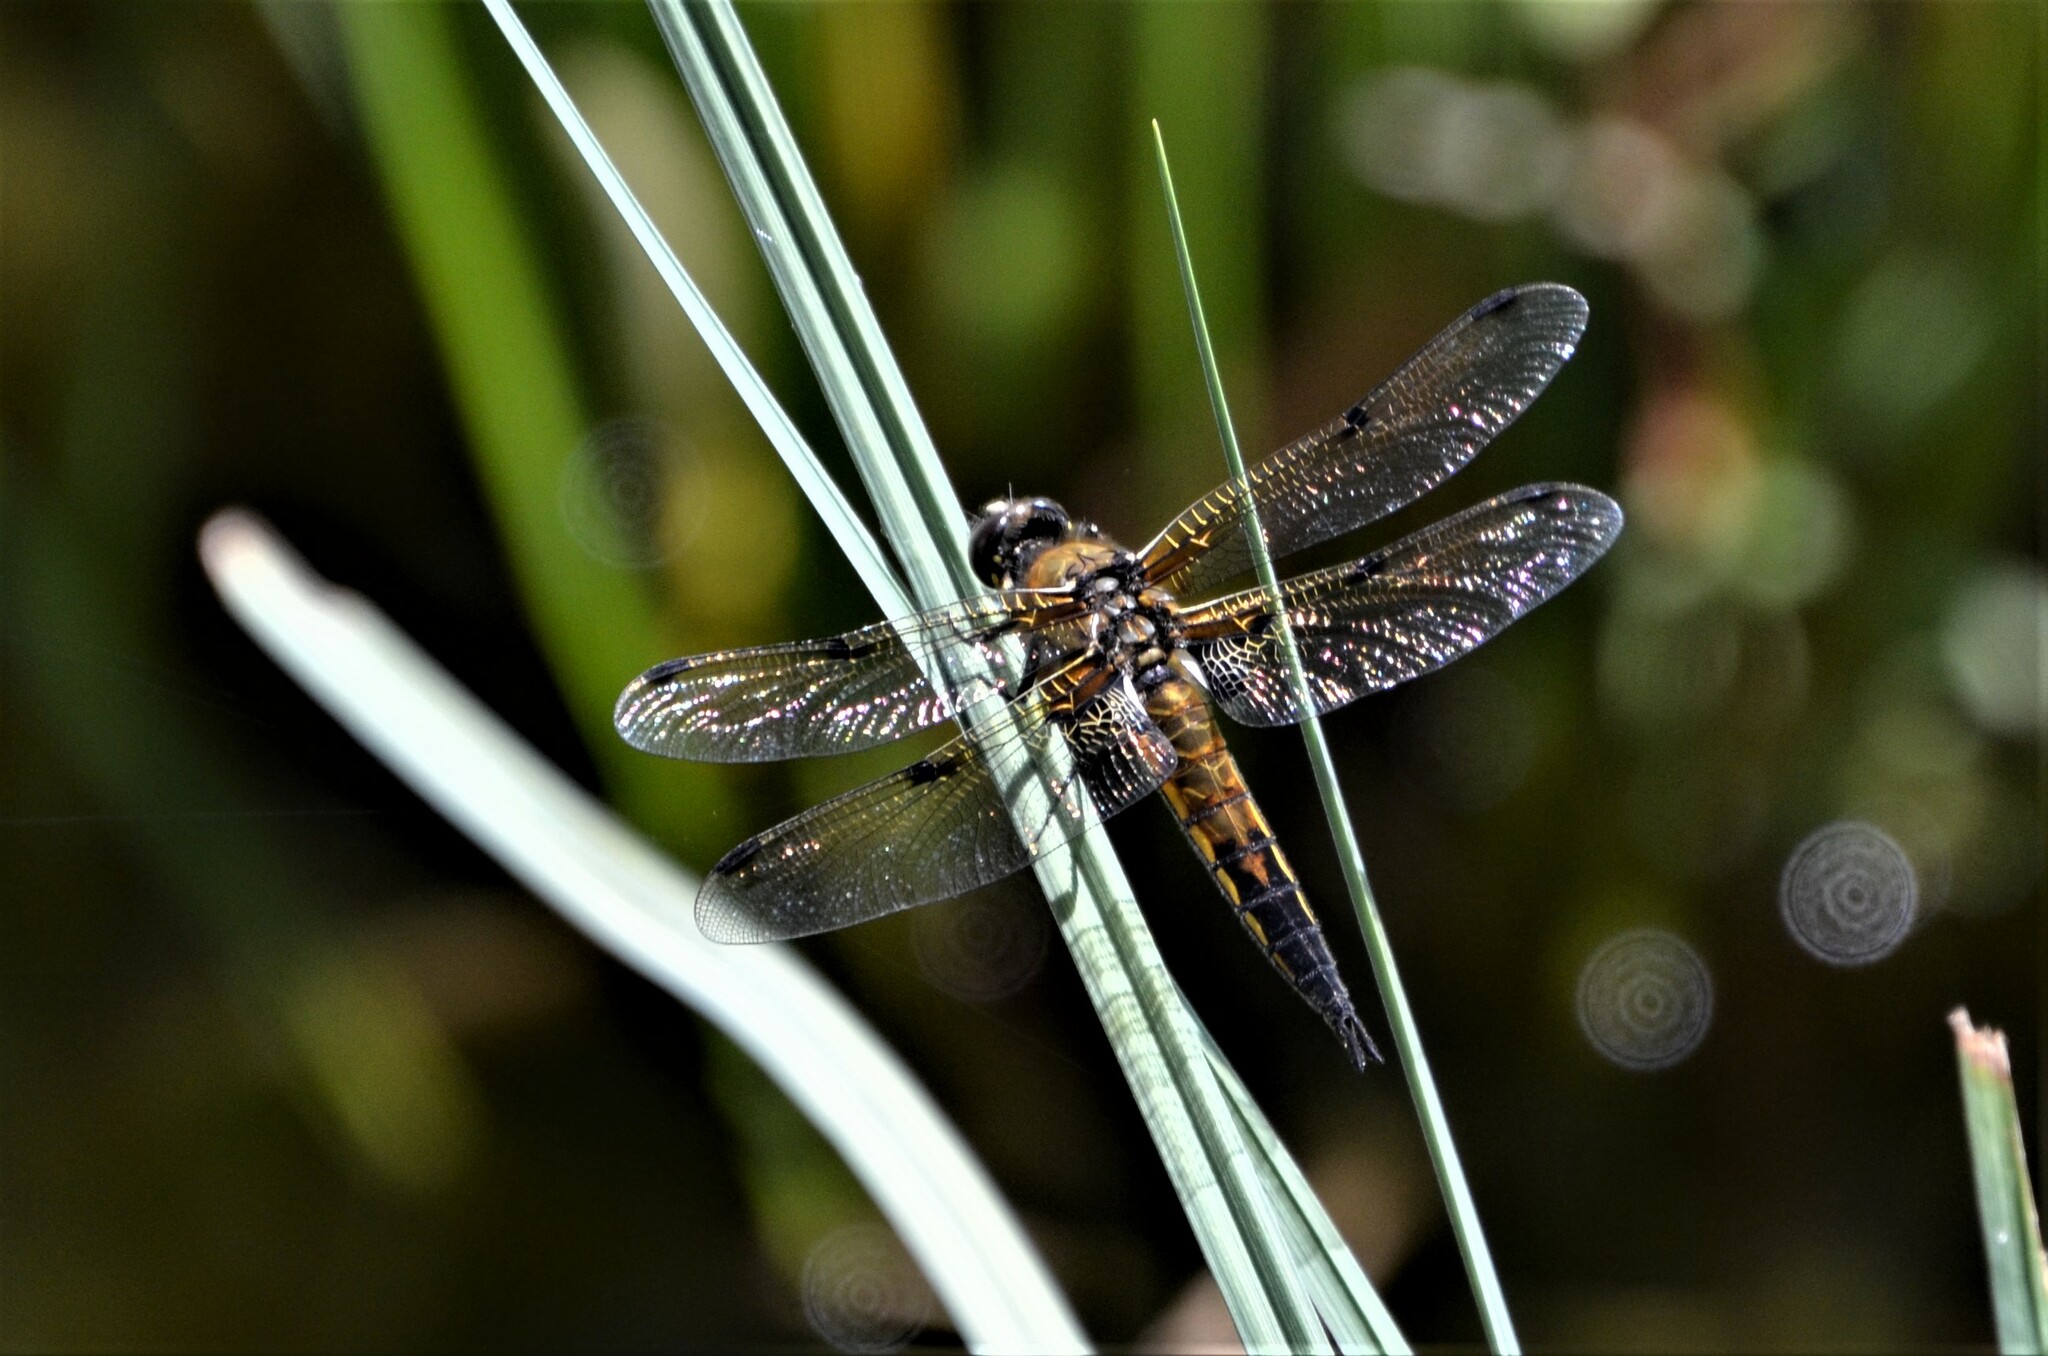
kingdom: Animalia
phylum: Arthropoda
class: Insecta
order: Odonata
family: Libellulidae
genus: Libellula
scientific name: Libellula quadrimaculata
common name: Four-spotted chaser
